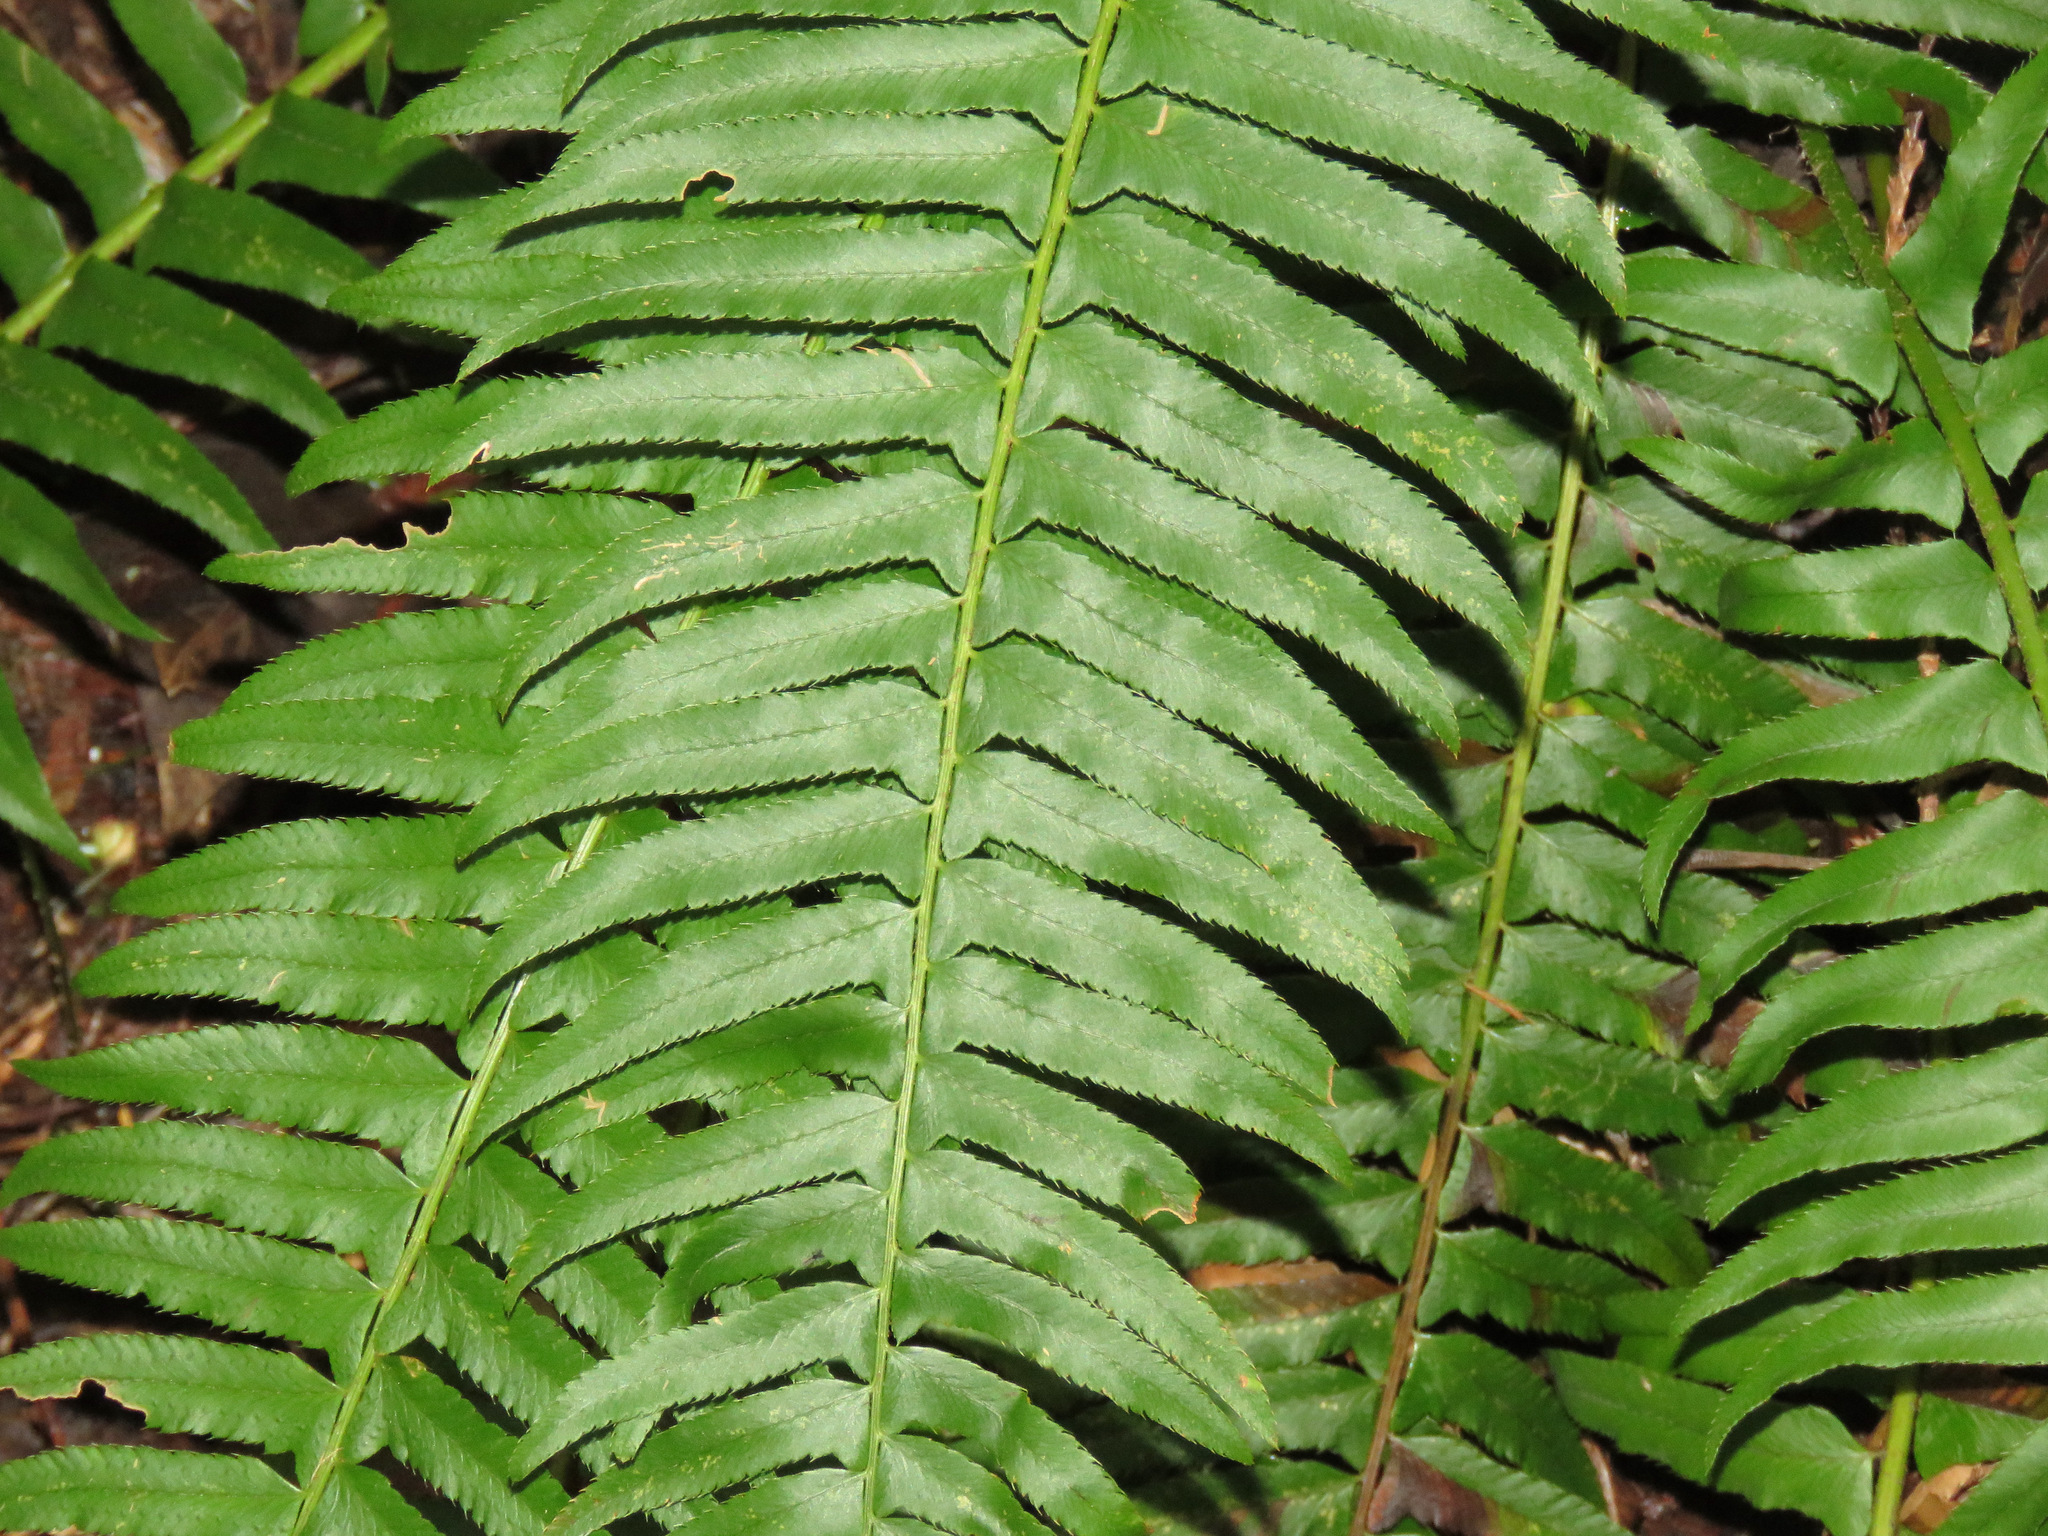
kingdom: Plantae
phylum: Tracheophyta
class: Polypodiopsida
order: Polypodiales
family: Dryopteridaceae
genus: Polystichum
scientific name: Polystichum munitum
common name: Western sword-fern
